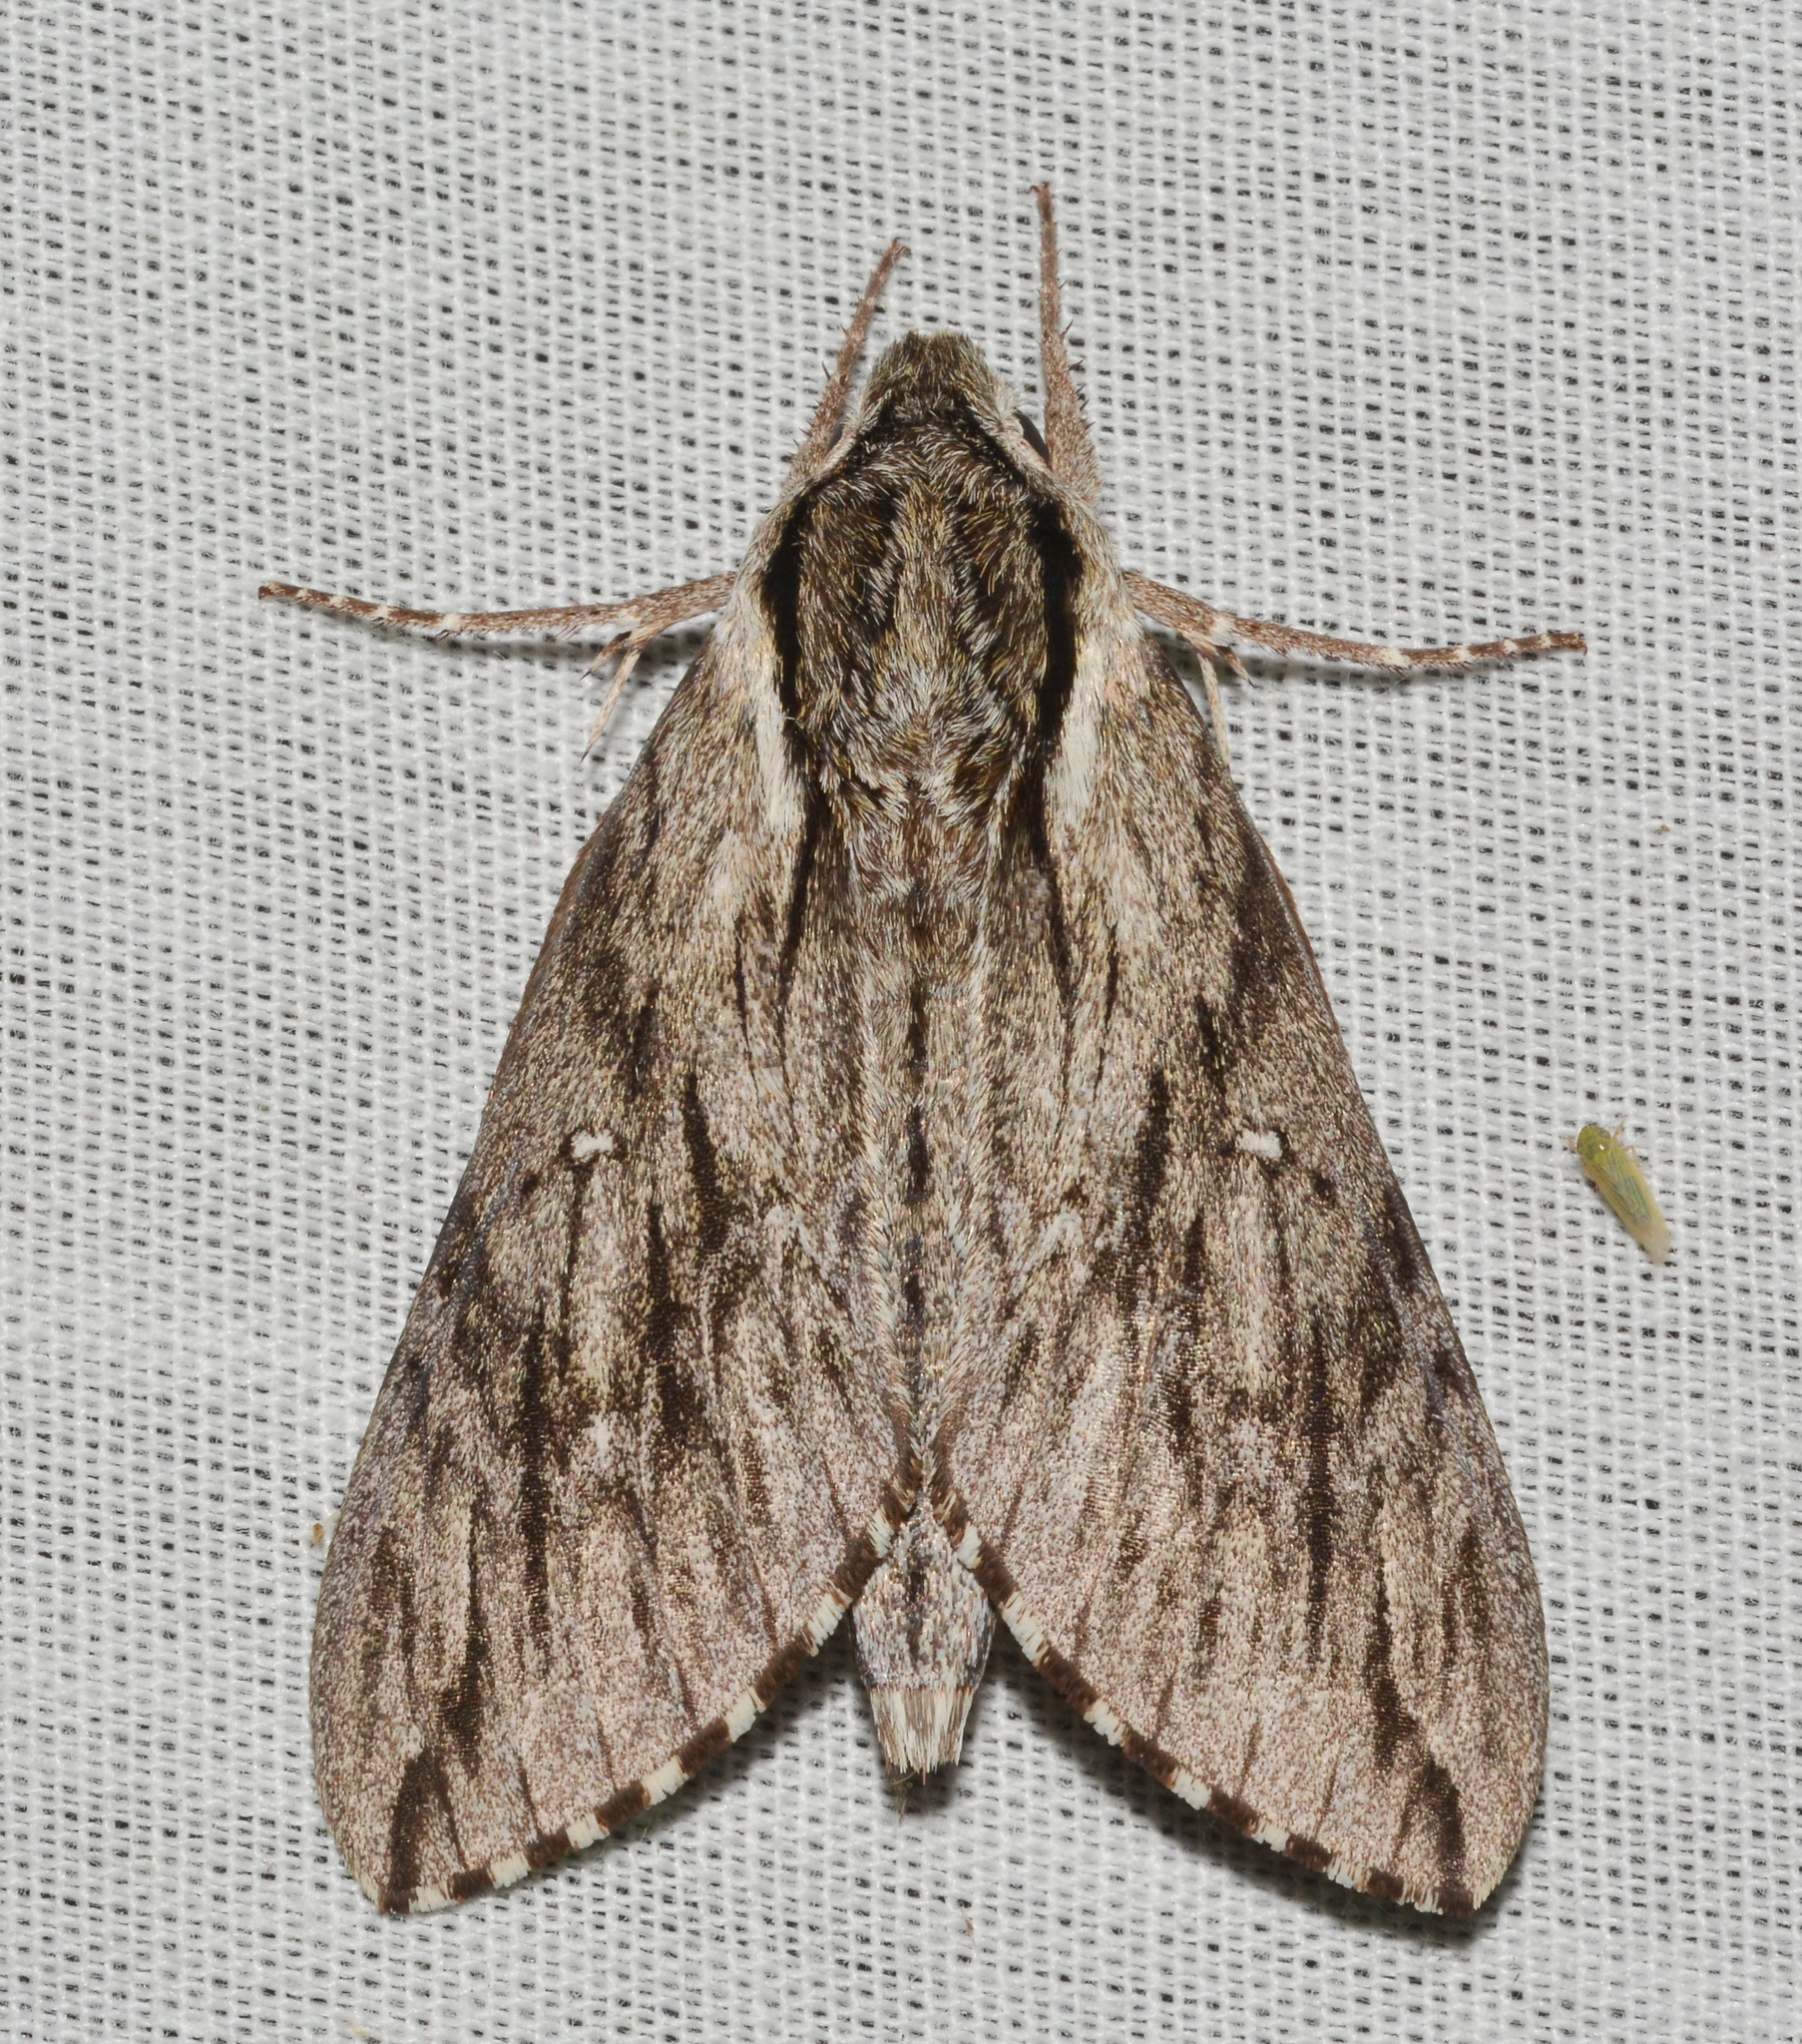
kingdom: Animalia
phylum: Arthropoda
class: Insecta
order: Lepidoptera
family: Sphingidae
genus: Paratrea
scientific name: Paratrea plebeja
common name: Plebian sphinx
